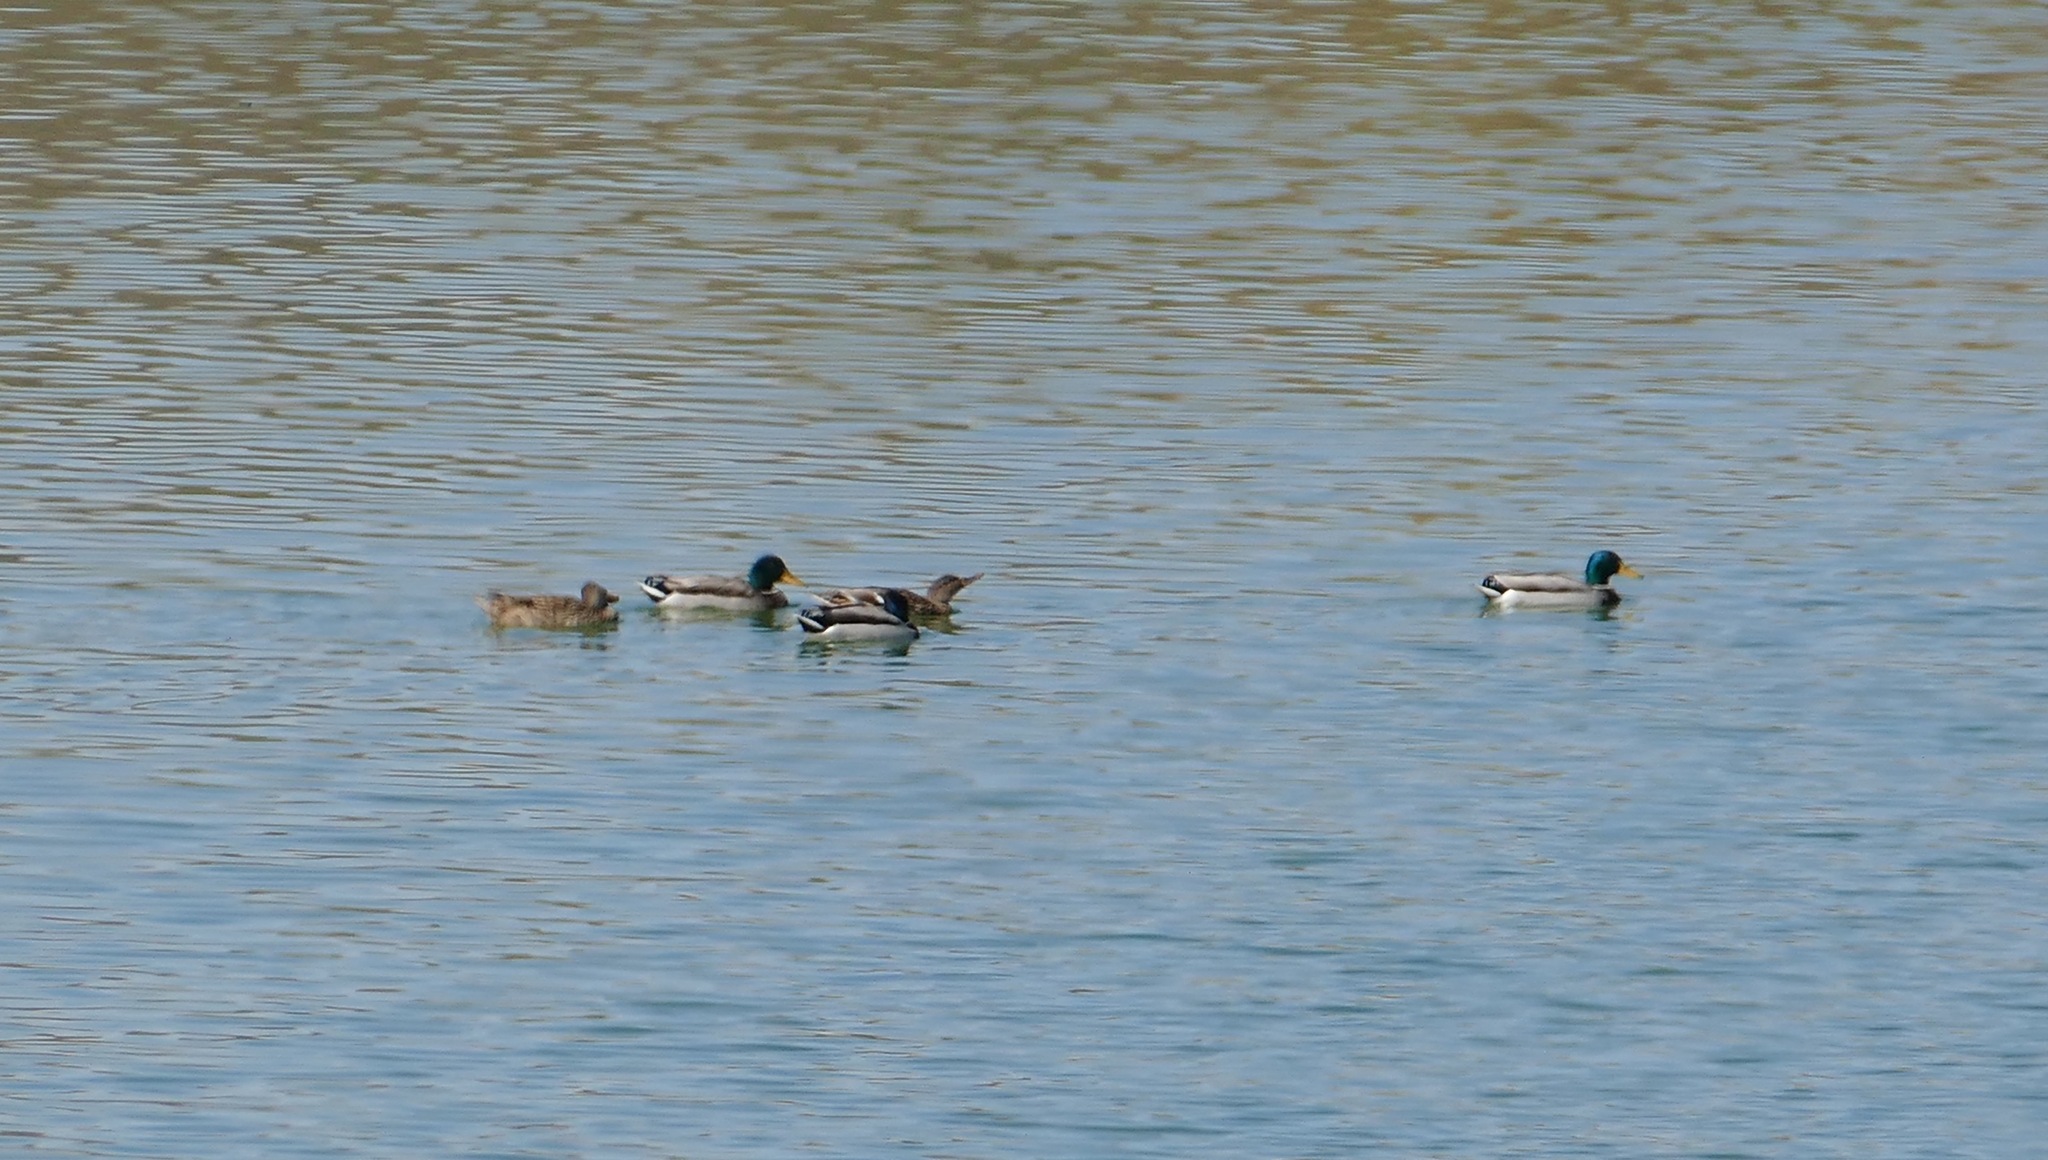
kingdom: Animalia
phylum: Chordata
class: Aves
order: Anseriformes
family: Anatidae
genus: Anas
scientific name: Anas platyrhynchos
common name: Mallard
